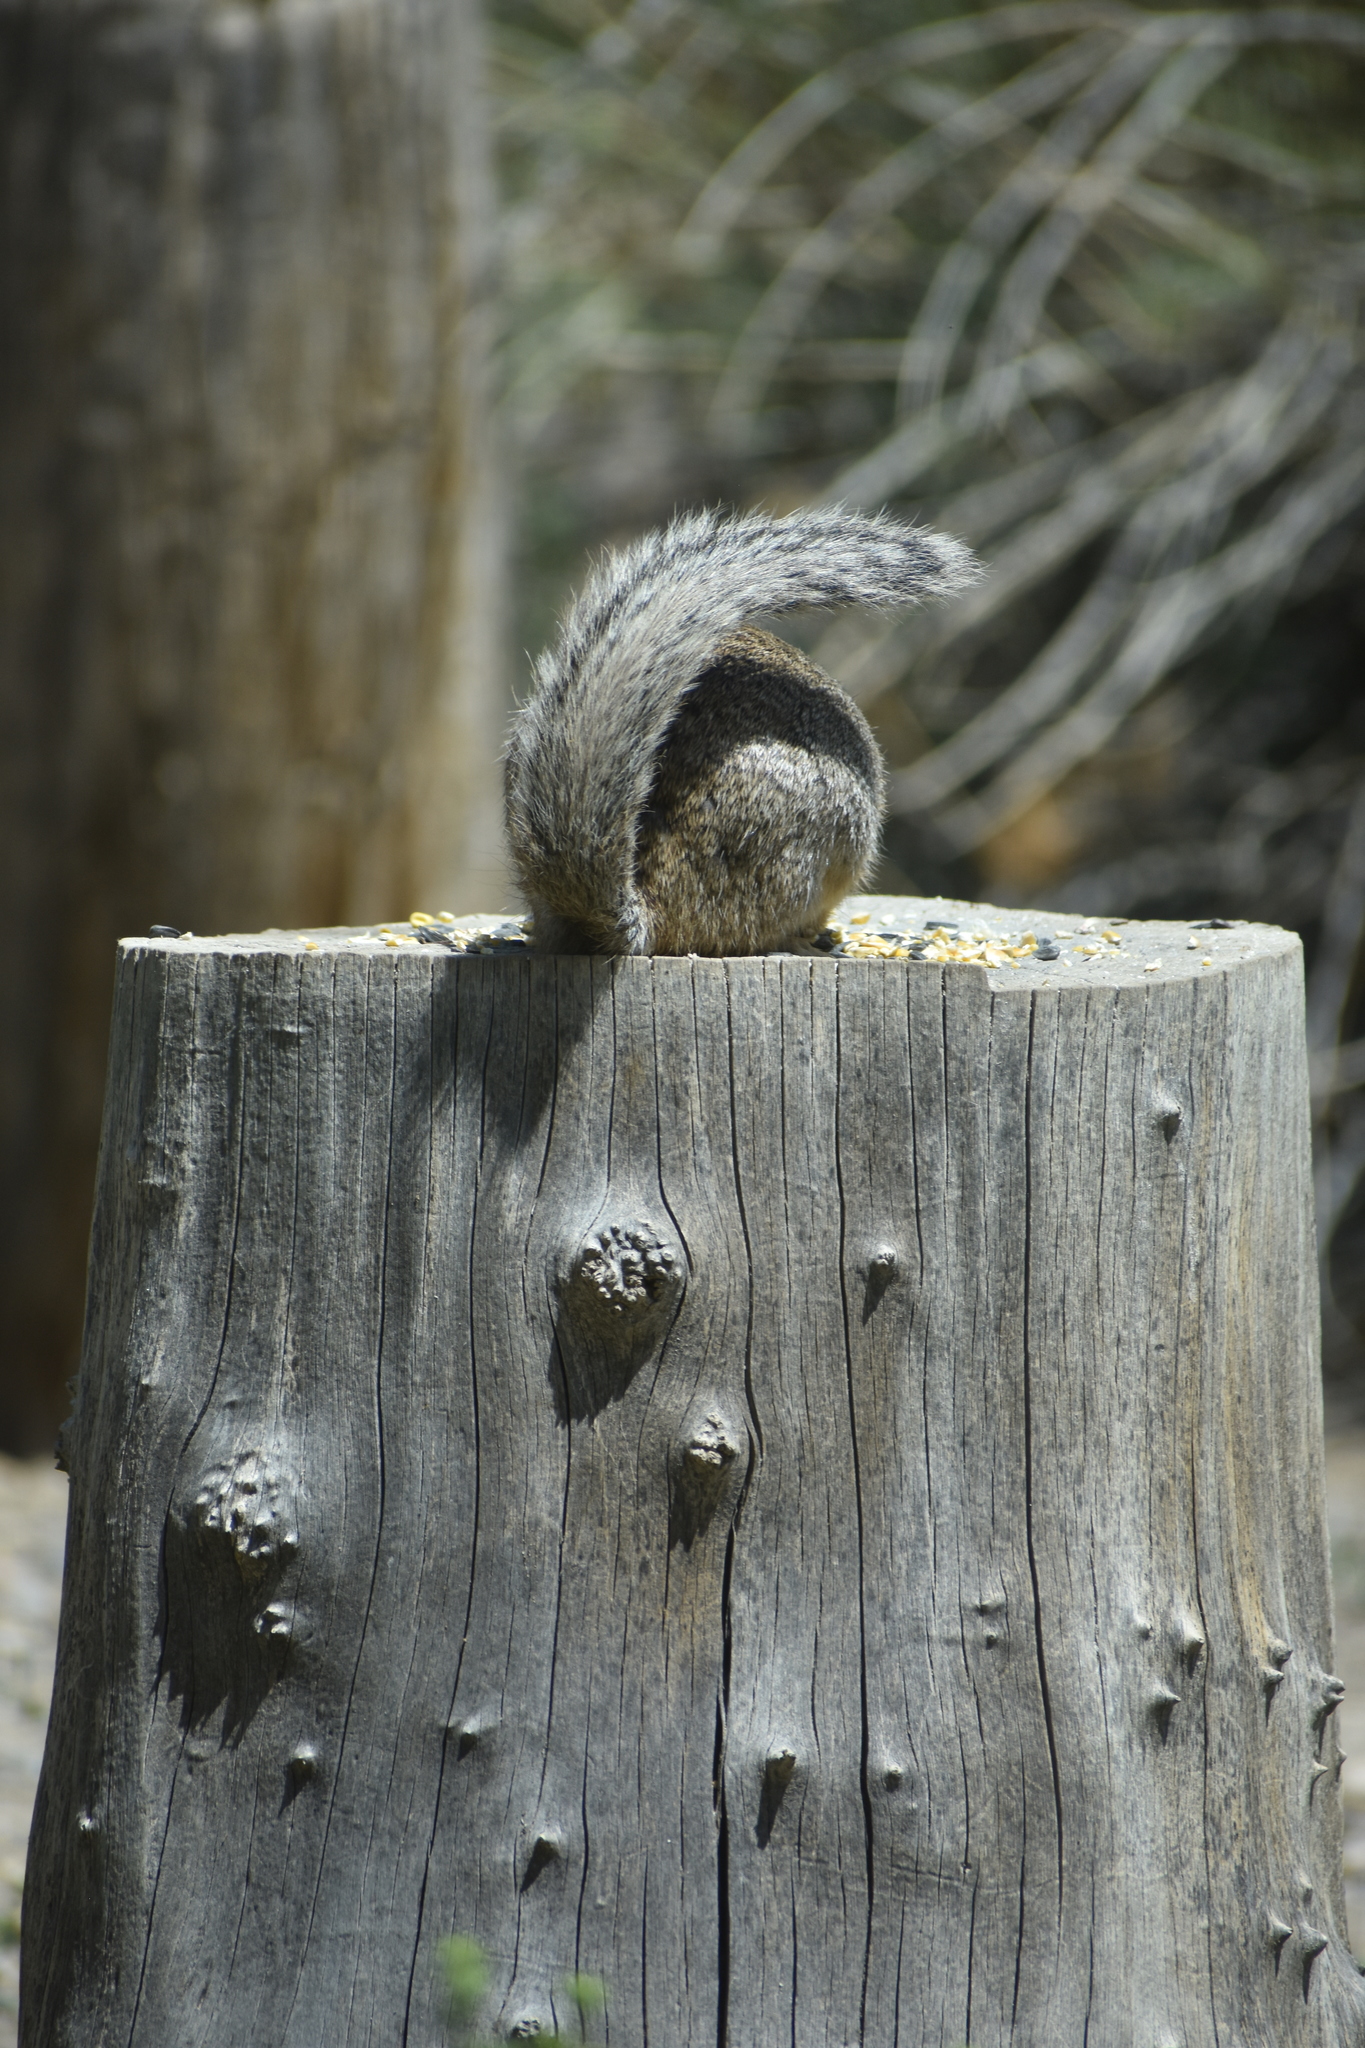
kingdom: Animalia
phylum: Chordata
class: Mammalia
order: Rodentia
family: Sciuridae
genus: Otospermophilus
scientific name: Otospermophilus variegatus
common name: Rock squirrel
